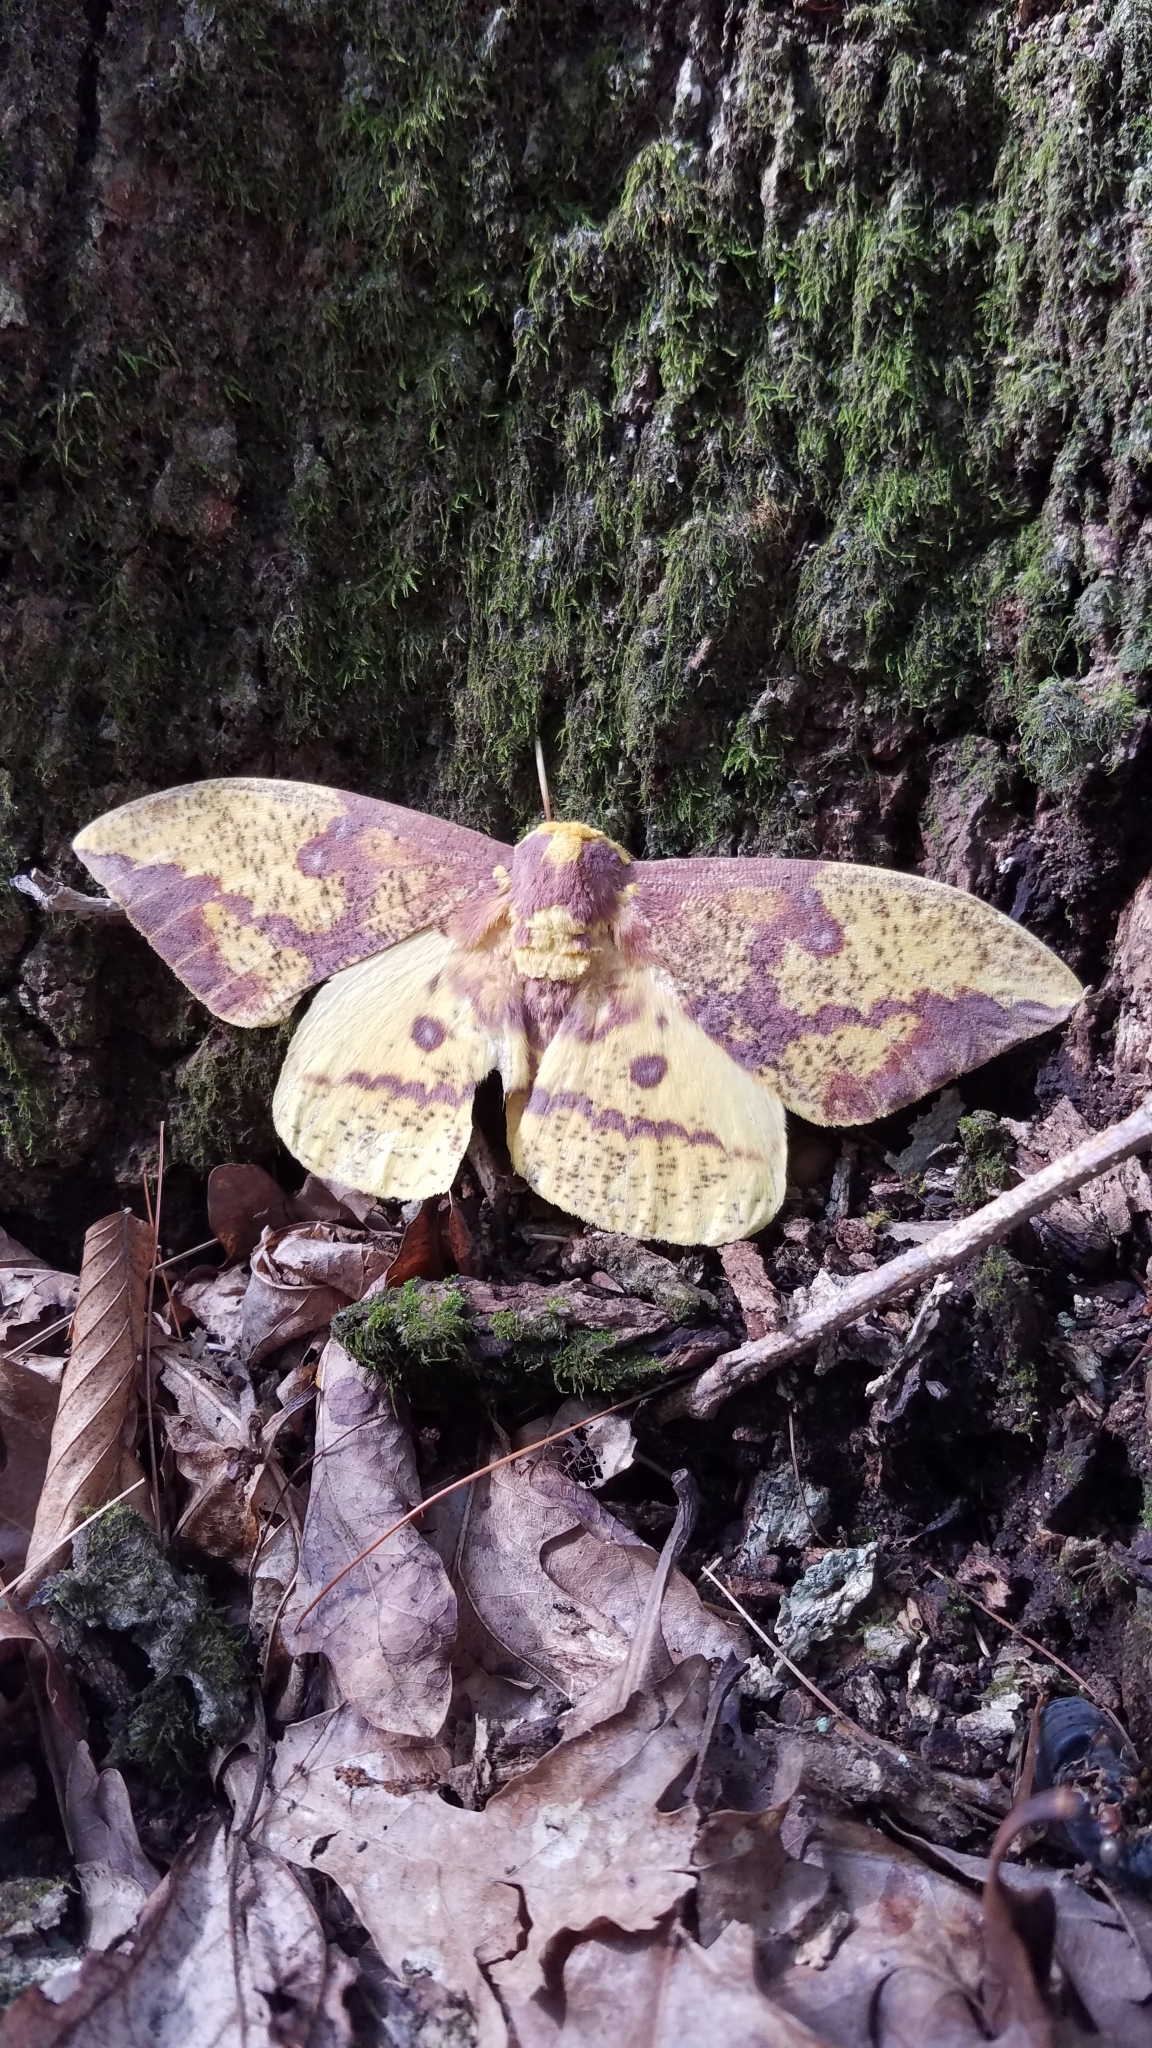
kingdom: Animalia
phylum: Arthropoda
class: Insecta
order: Lepidoptera
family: Saturniidae
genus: Eacles
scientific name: Eacles imperialis
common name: Imperial moth
